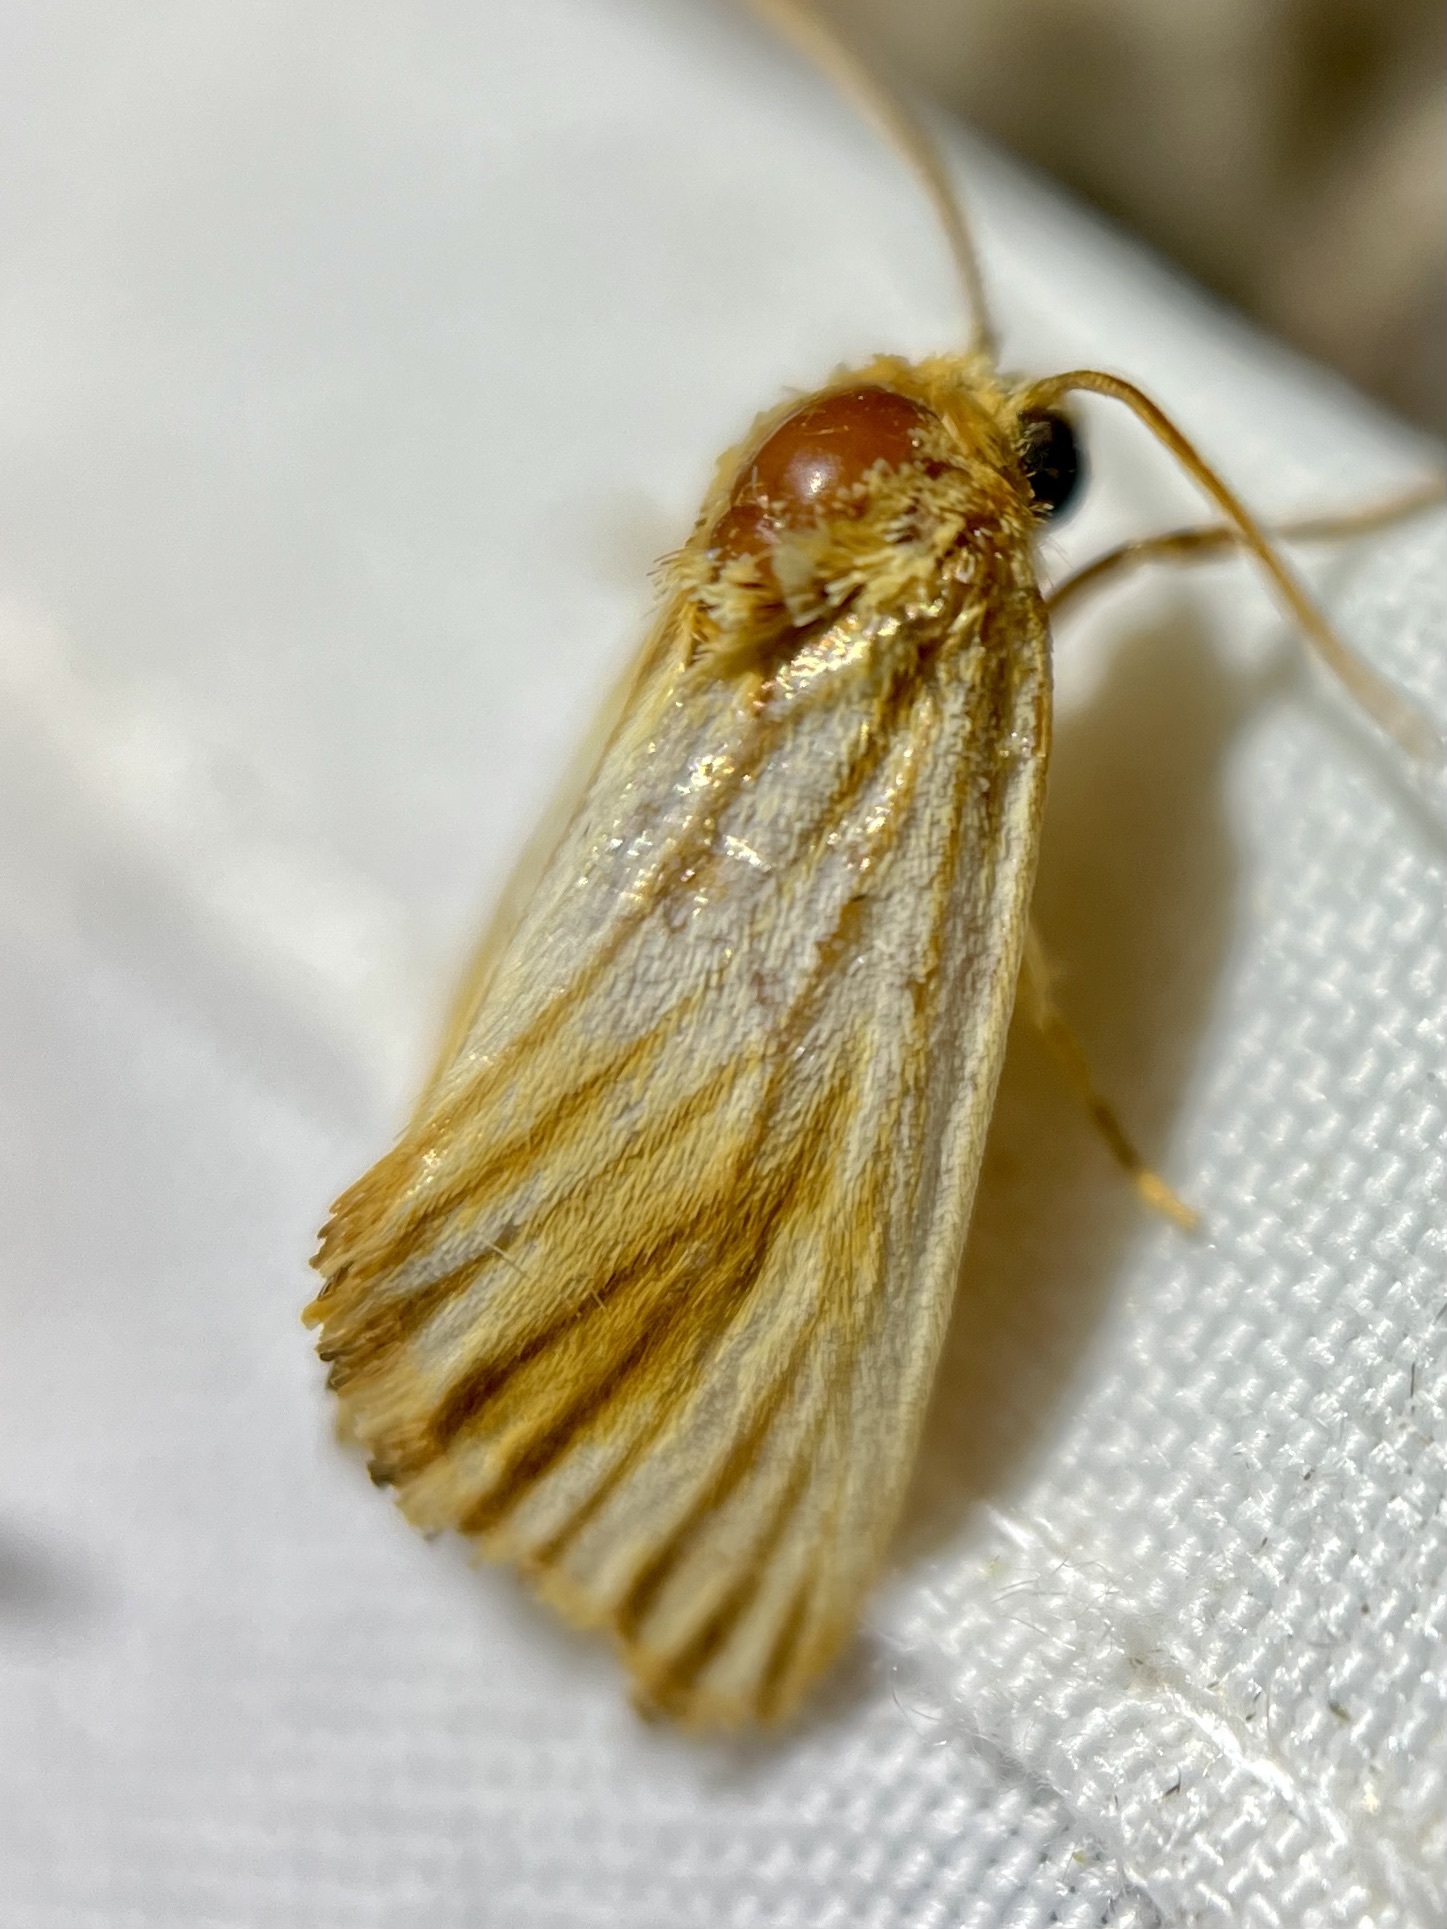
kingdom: Animalia
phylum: Arthropoda
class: Insecta
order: Lepidoptera
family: Noctuidae
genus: Antaplaga
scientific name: Antaplaga discistriga
